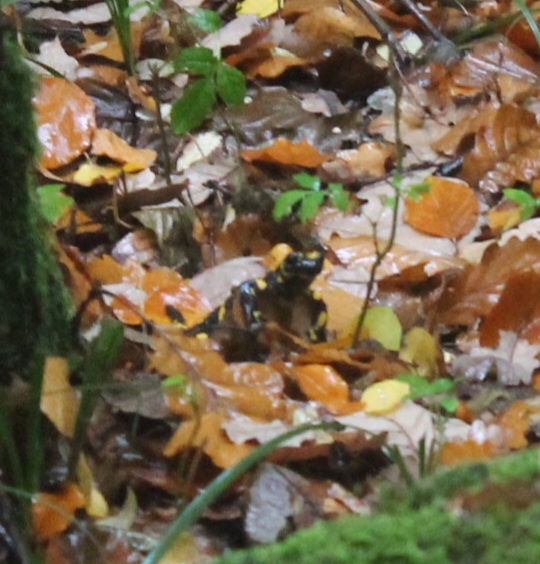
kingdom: Animalia
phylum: Chordata
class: Amphibia
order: Caudata
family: Salamandridae
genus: Salamandra
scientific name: Salamandra salamandra
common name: Fire salamander
